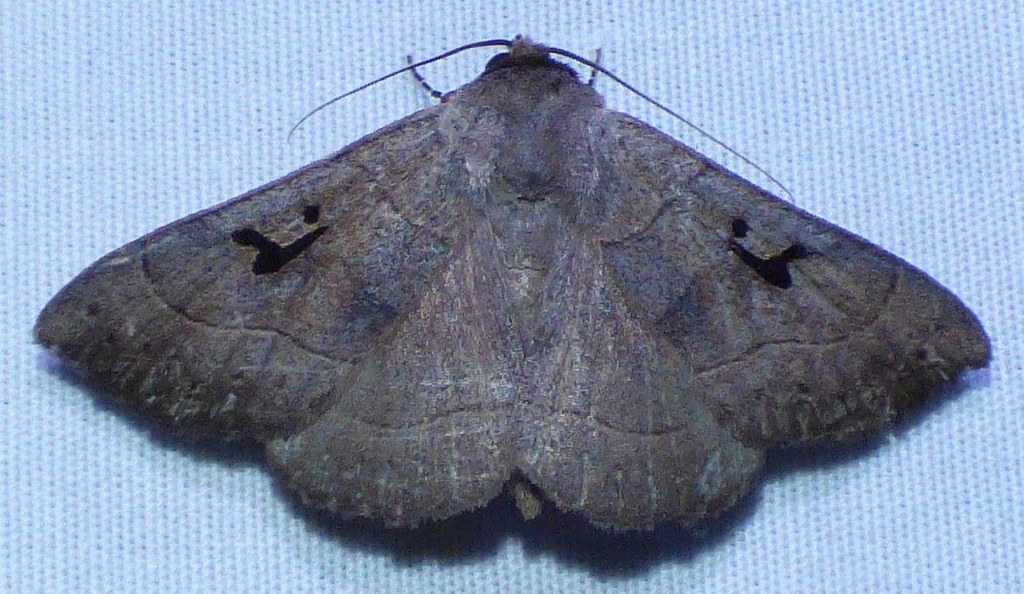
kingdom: Animalia
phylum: Arthropoda
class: Insecta
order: Lepidoptera
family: Erebidae
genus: Panopoda
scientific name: Panopoda carneicosta
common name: Brown panopoda moth
